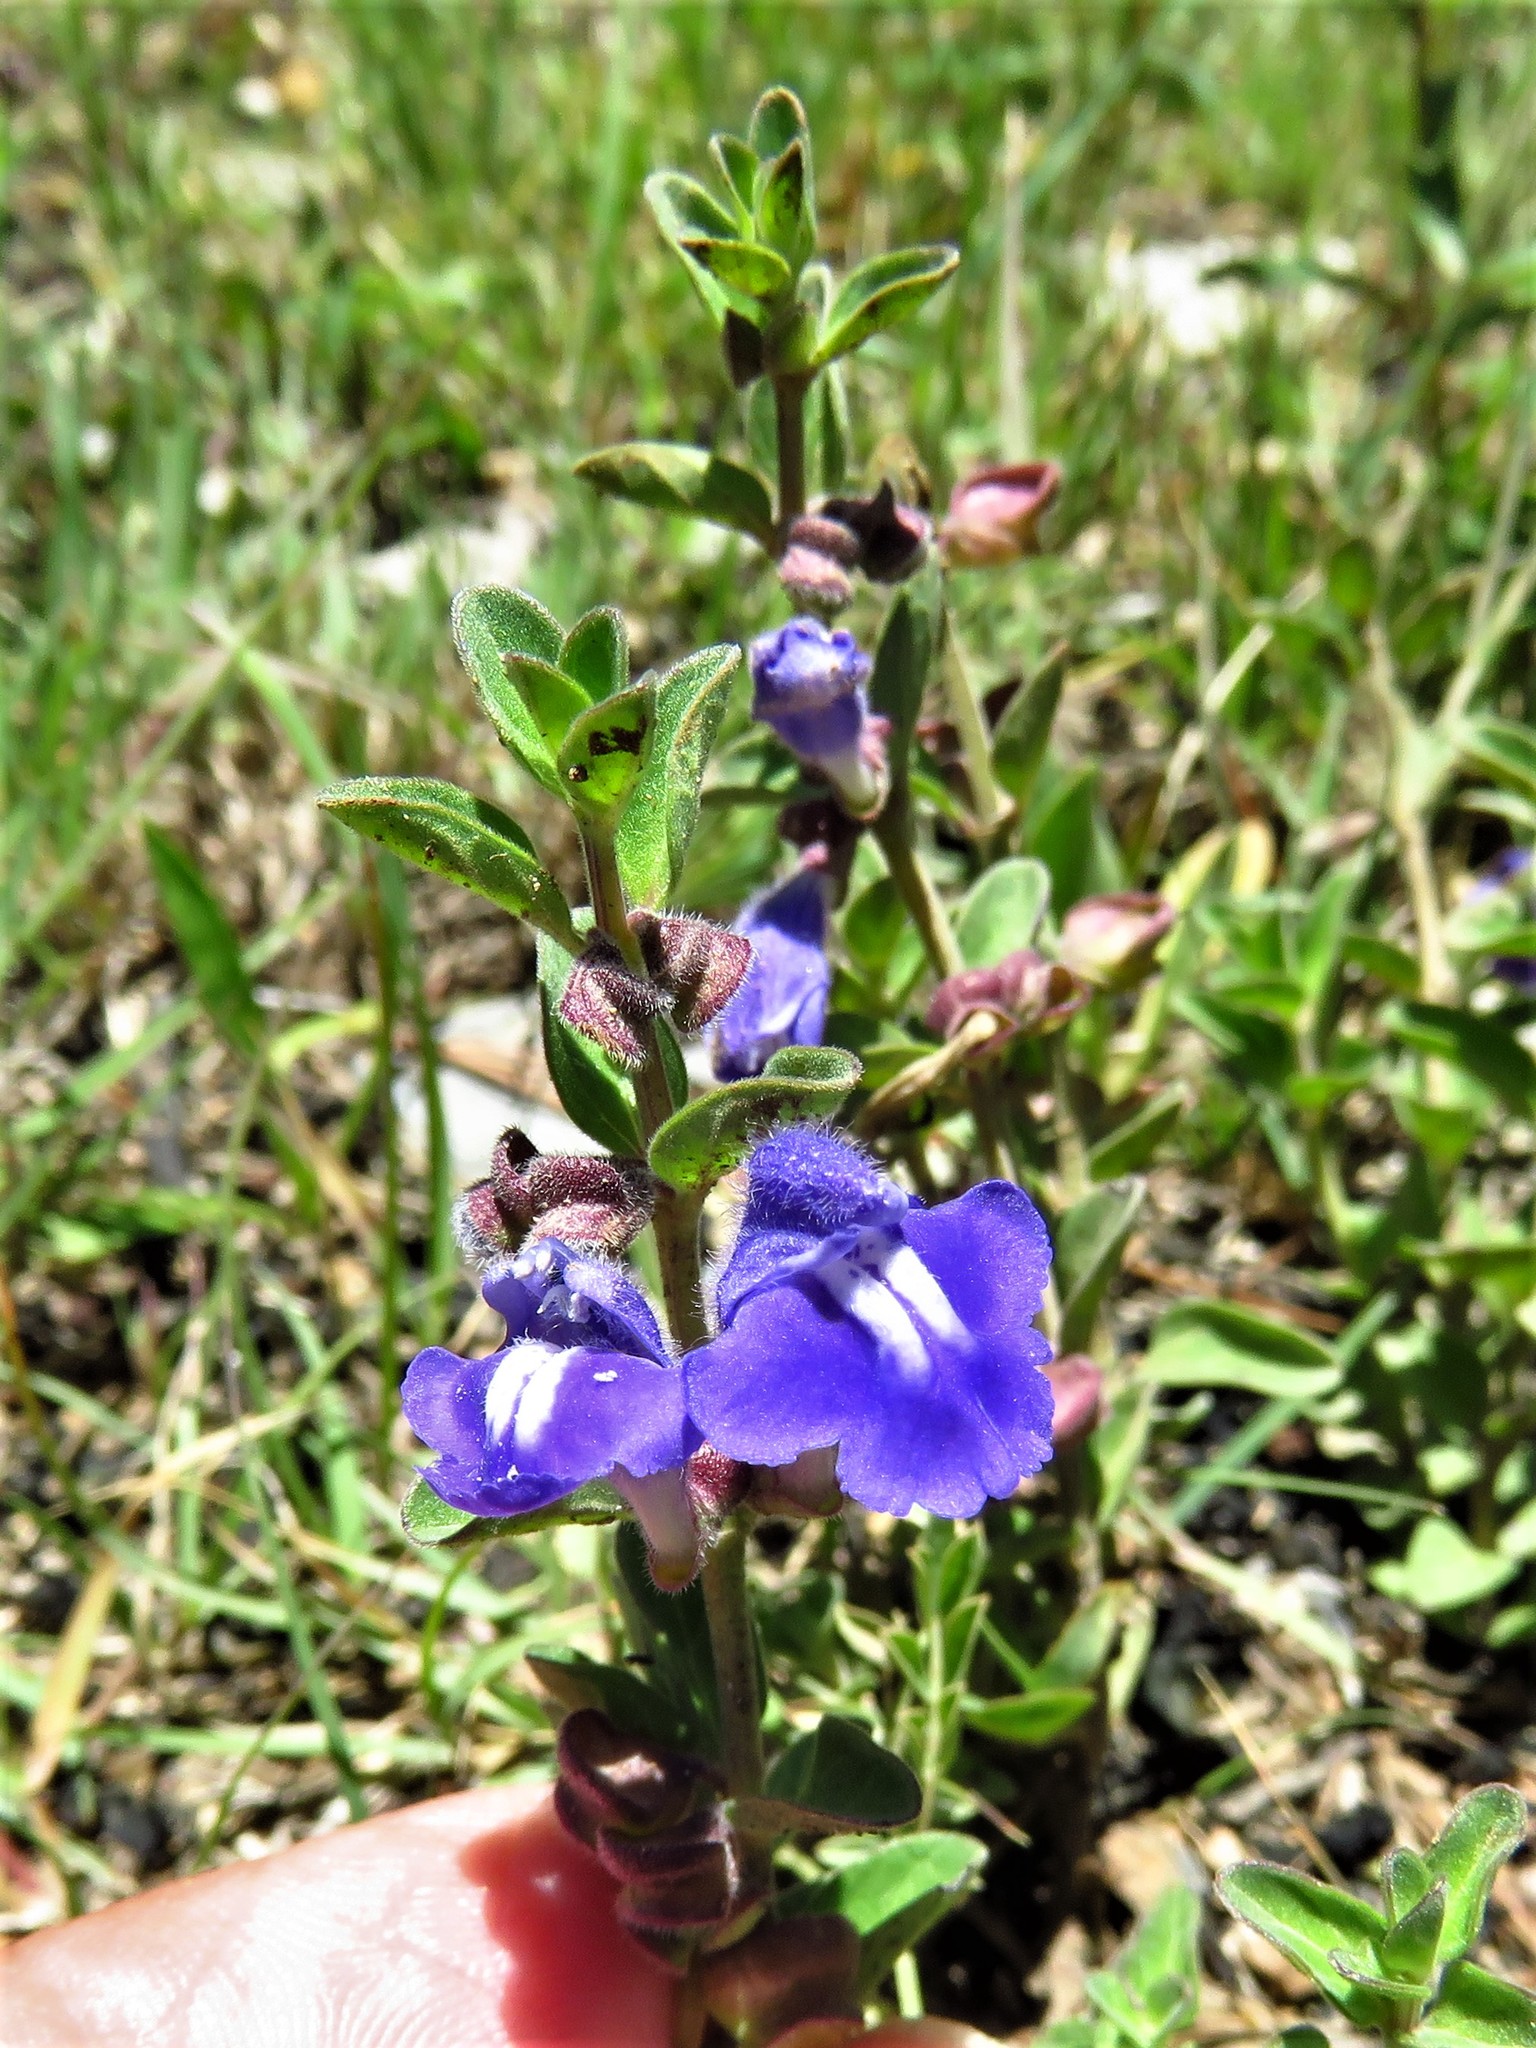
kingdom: Plantae
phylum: Tracheophyta
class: Magnoliopsida
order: Lamiales
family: Lamiaceae
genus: Scutellaria
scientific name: Scutellaria potosina
